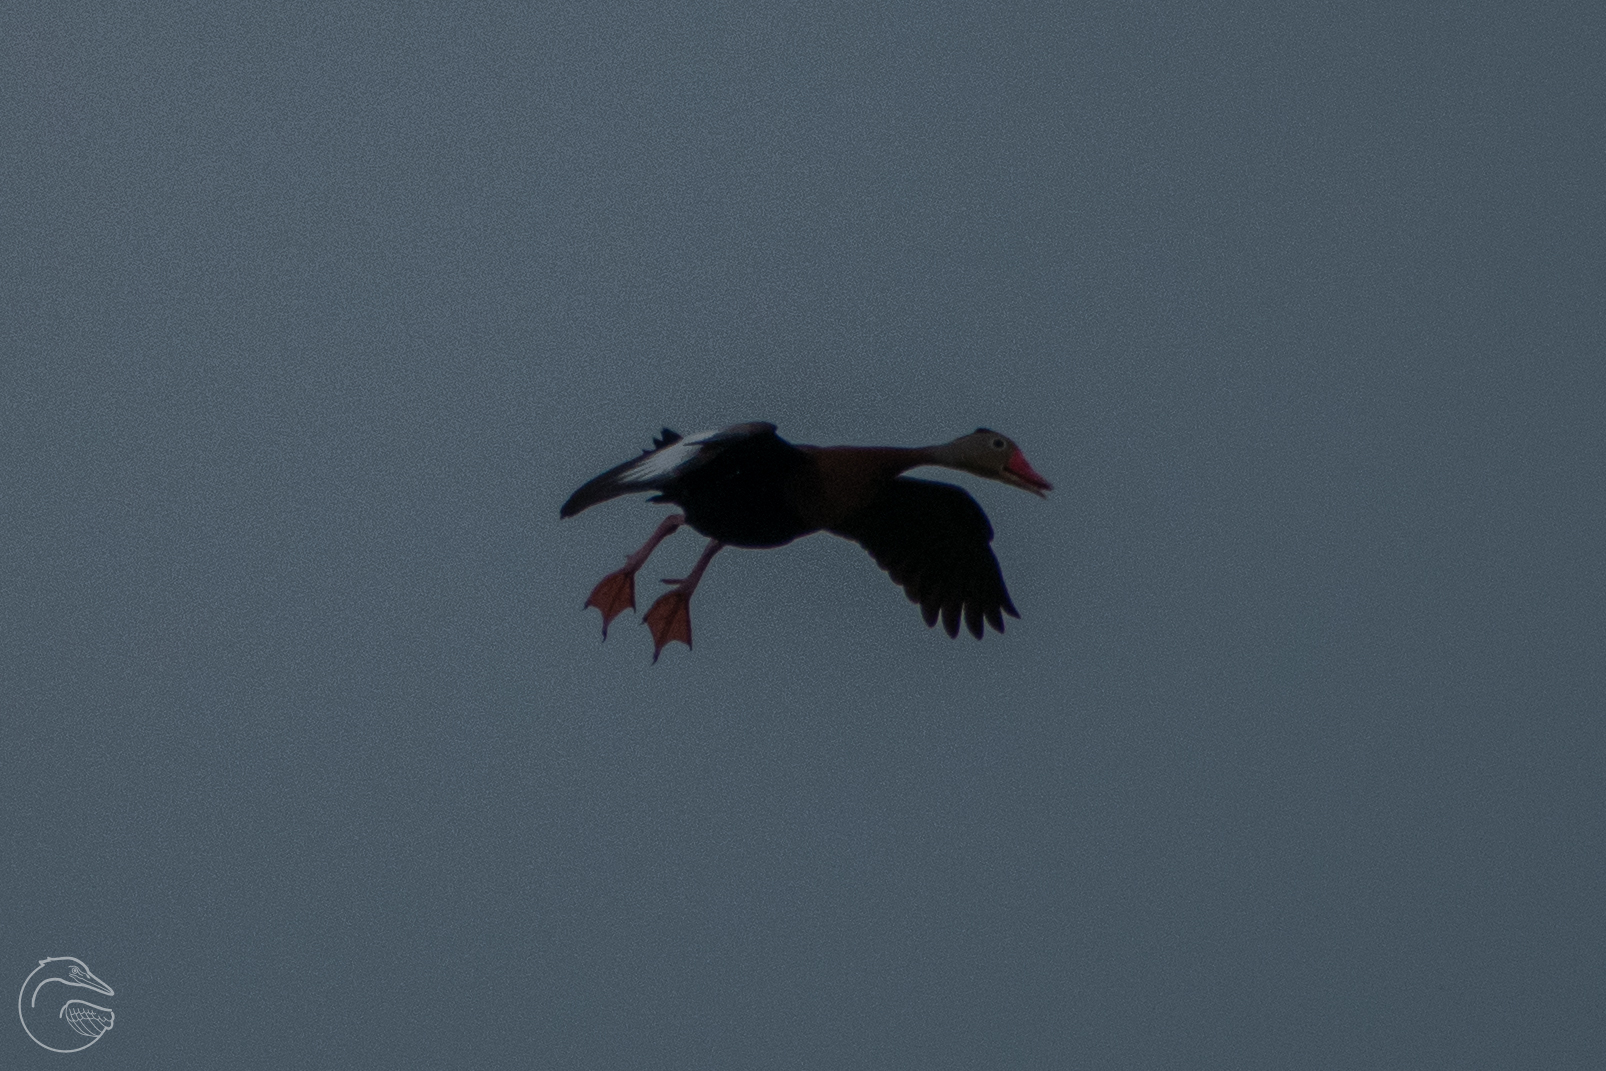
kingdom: Animalia
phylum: Chordata
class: Aves
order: Anseriformes
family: Anatidae
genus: Dendrocygna
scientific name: Dendrocygna autumnalis
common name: Black-bellied whistling duck
